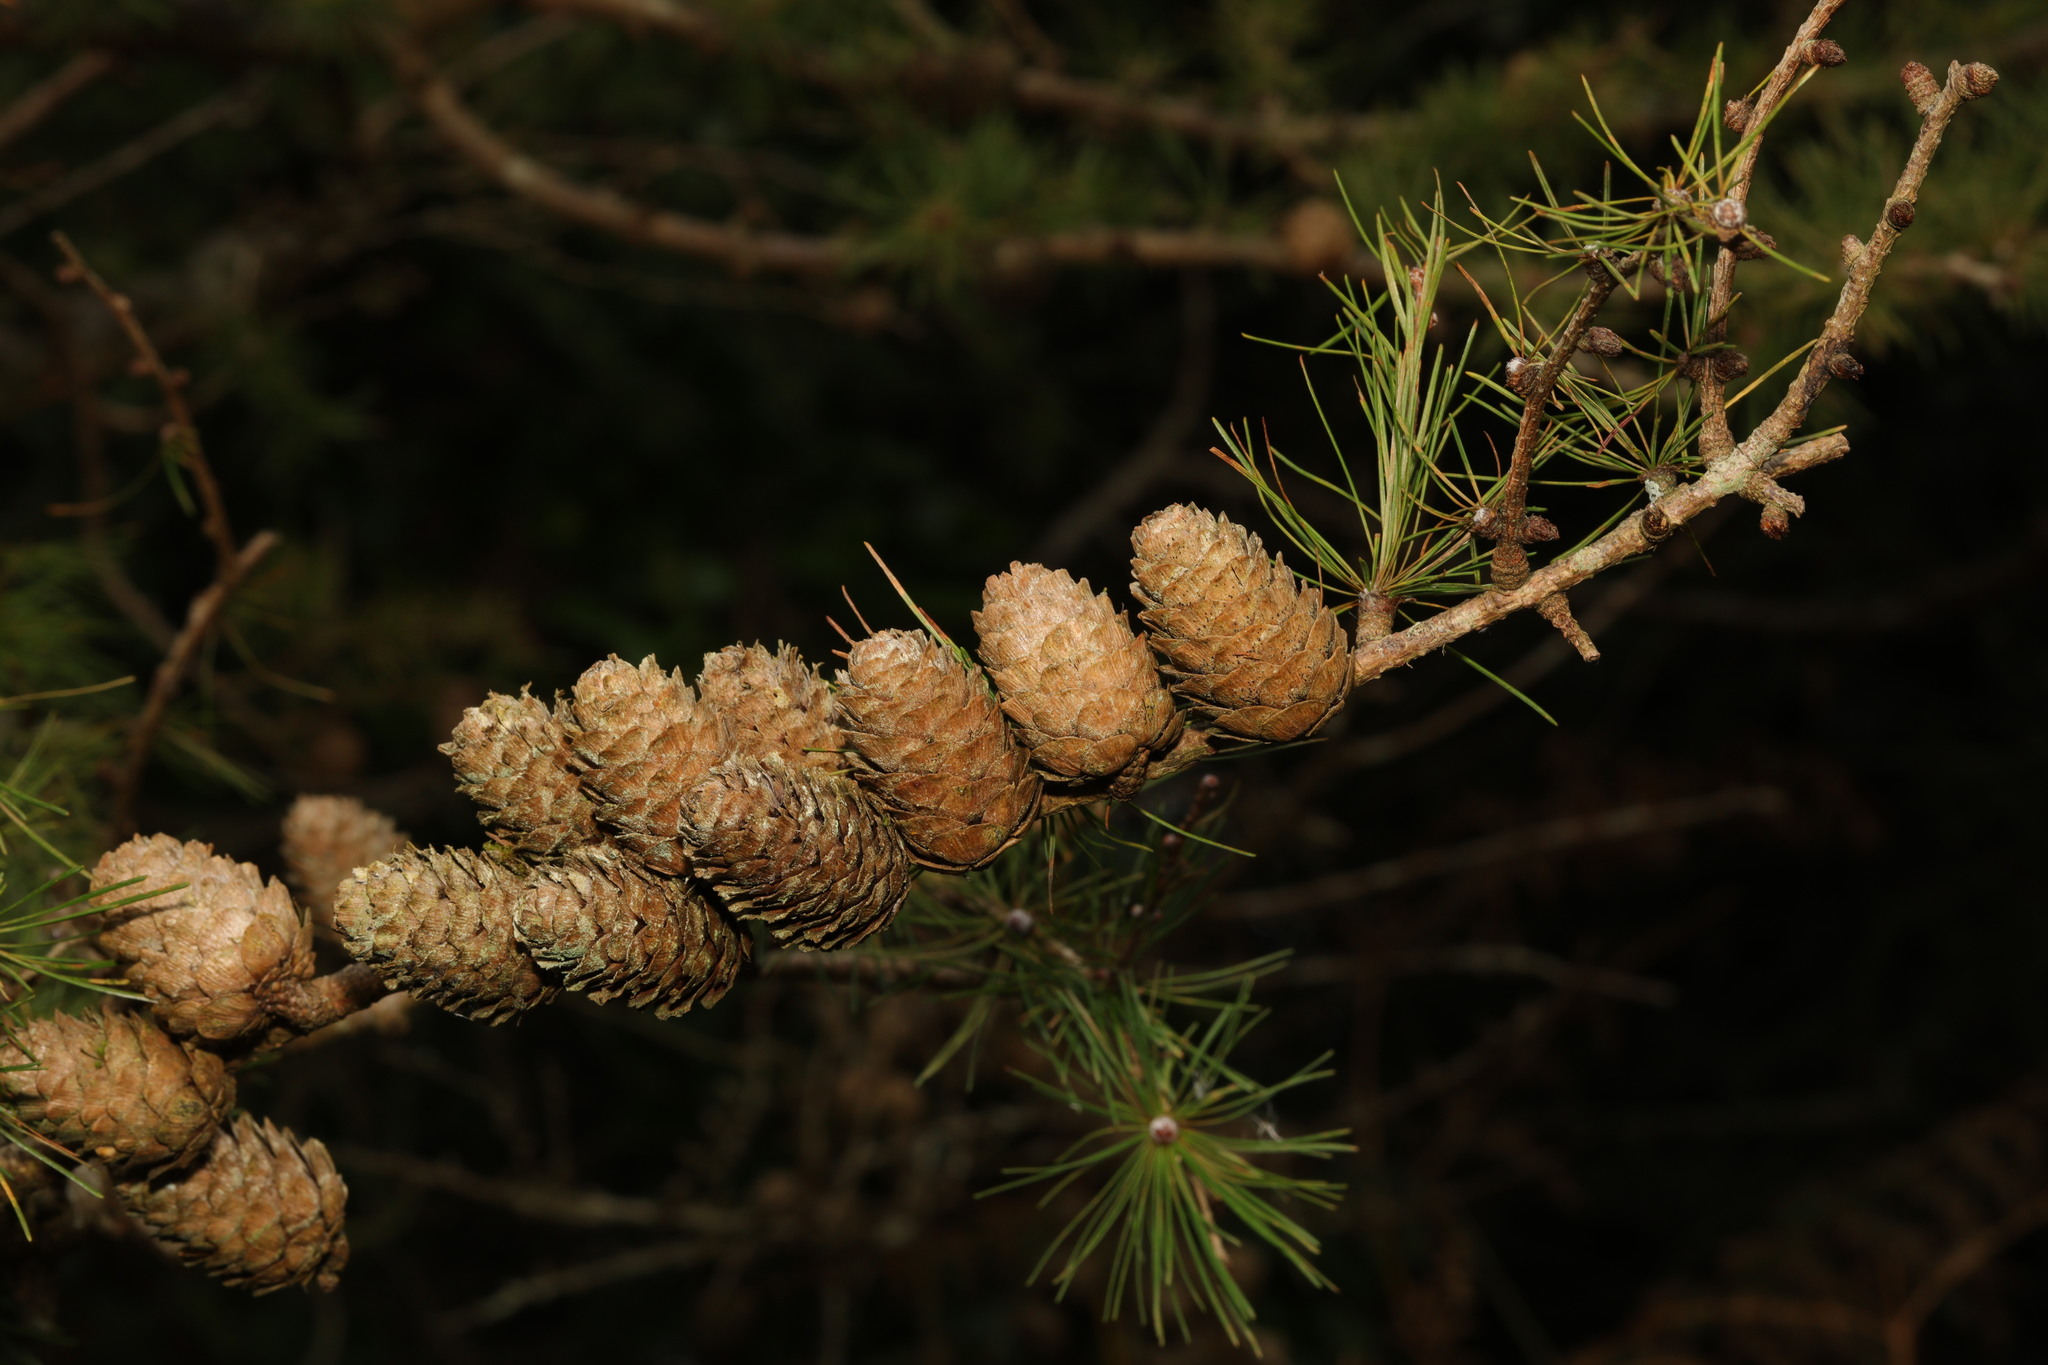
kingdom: Plantae
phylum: Tracheophyta
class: Pinopsida
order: Pinales
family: Pinaceae
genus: Larix
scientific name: Larix decidua
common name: European larch
